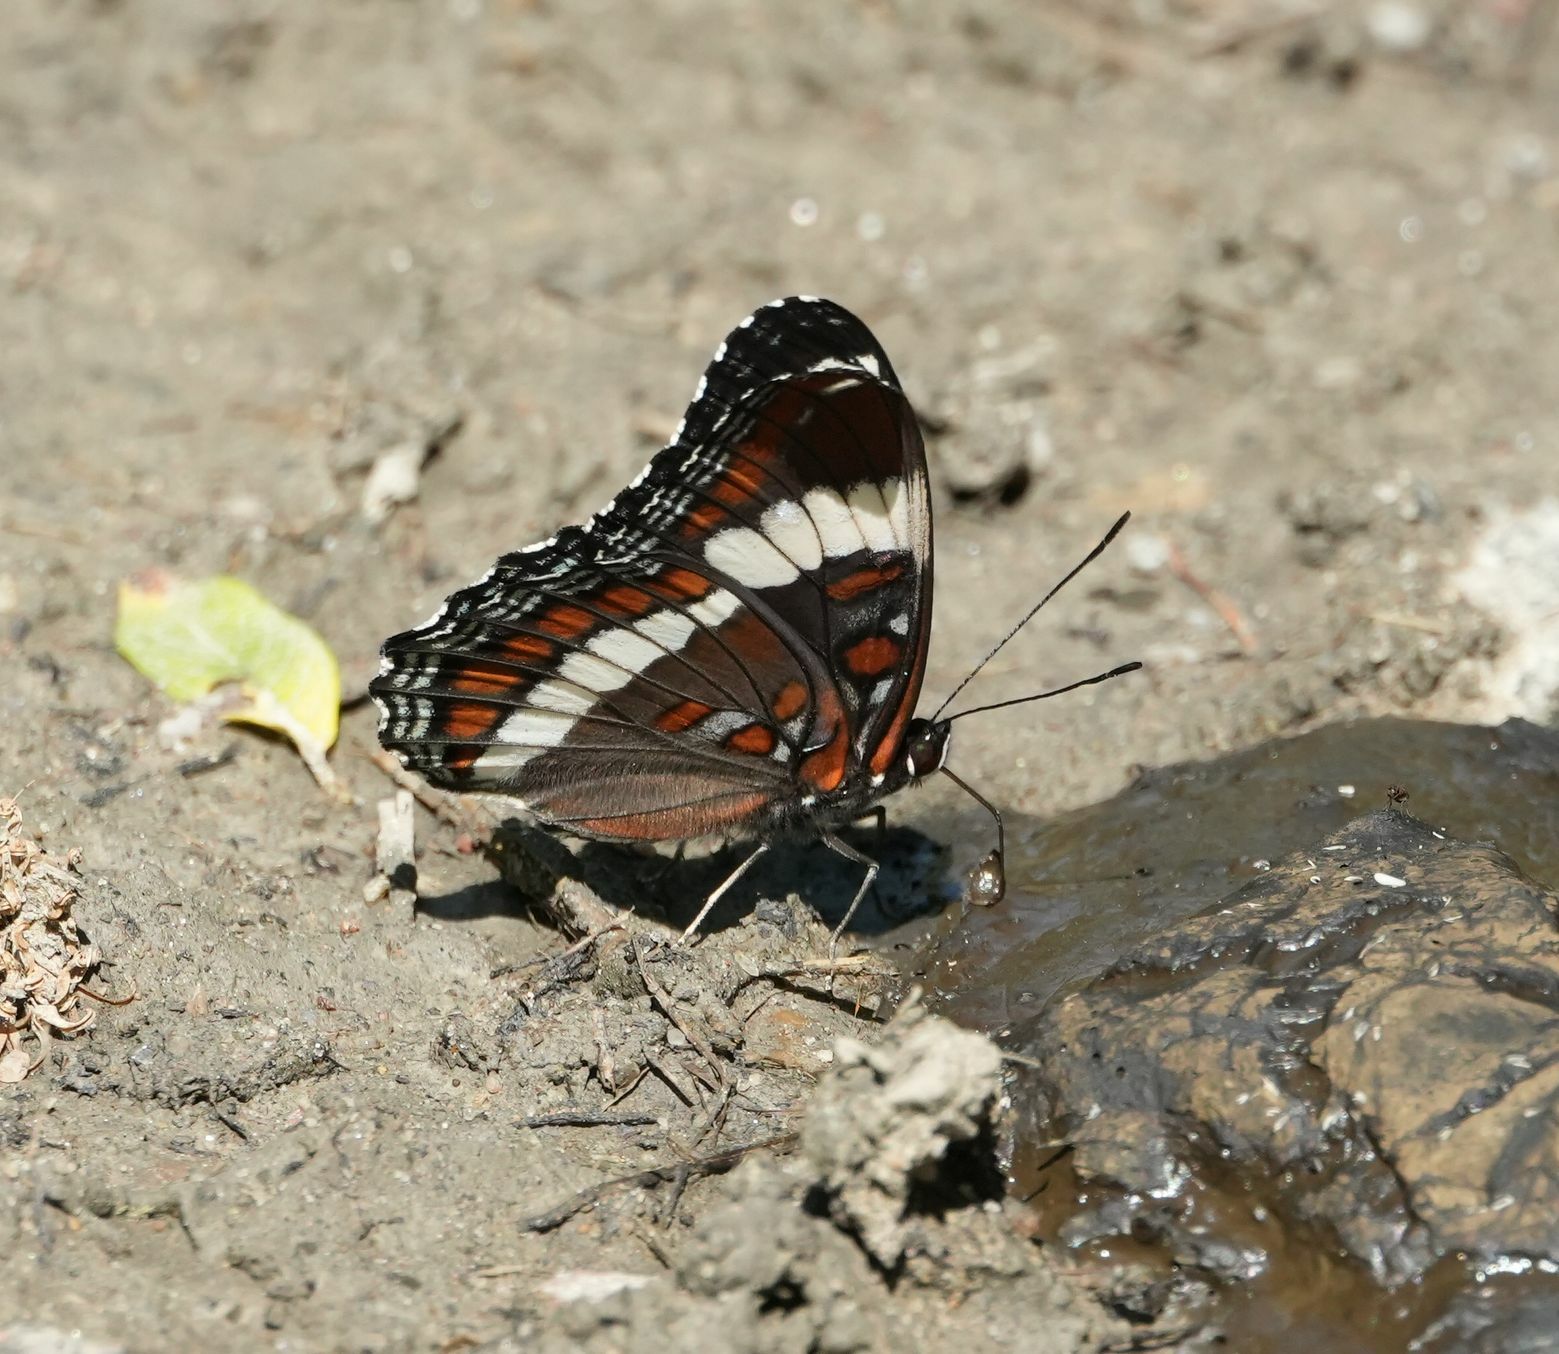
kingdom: Animalia
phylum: Arthropoda
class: Insecta
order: Lepidoptera
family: Nymphalidae
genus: Limenitis
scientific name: Limenitis arthemis
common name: Red-spotted admiral
